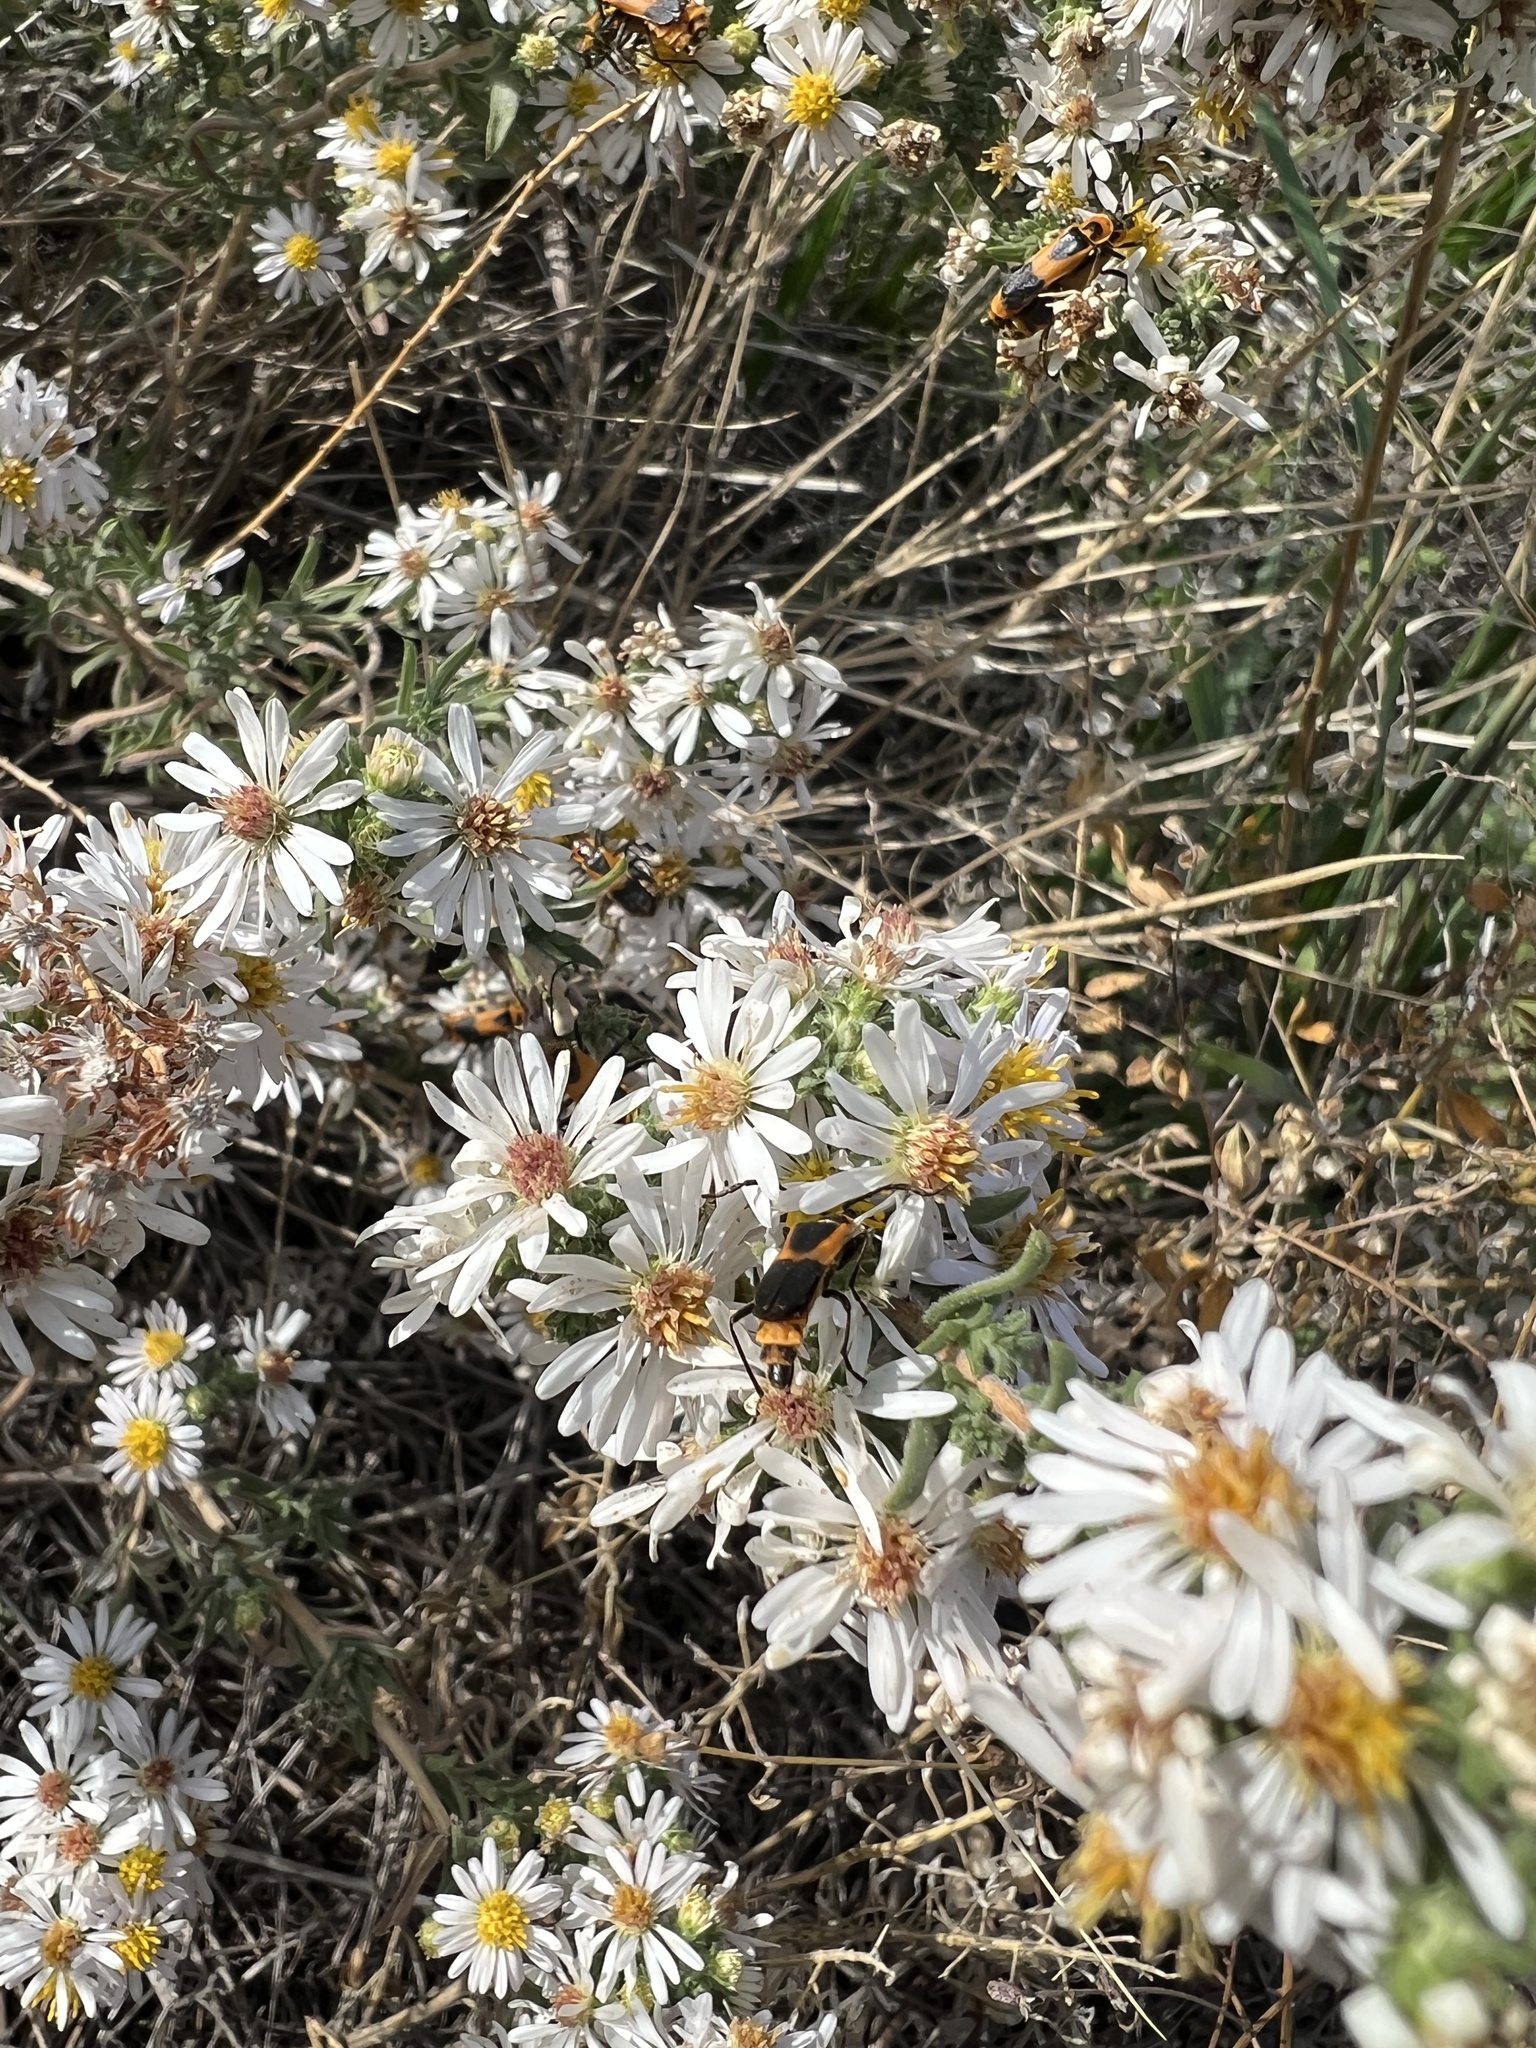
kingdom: Animalia
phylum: Arthropoda
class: Insecta
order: Coleoptera
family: Cantharidae
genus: Chauliognathus
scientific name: Chauliognathus basalis
